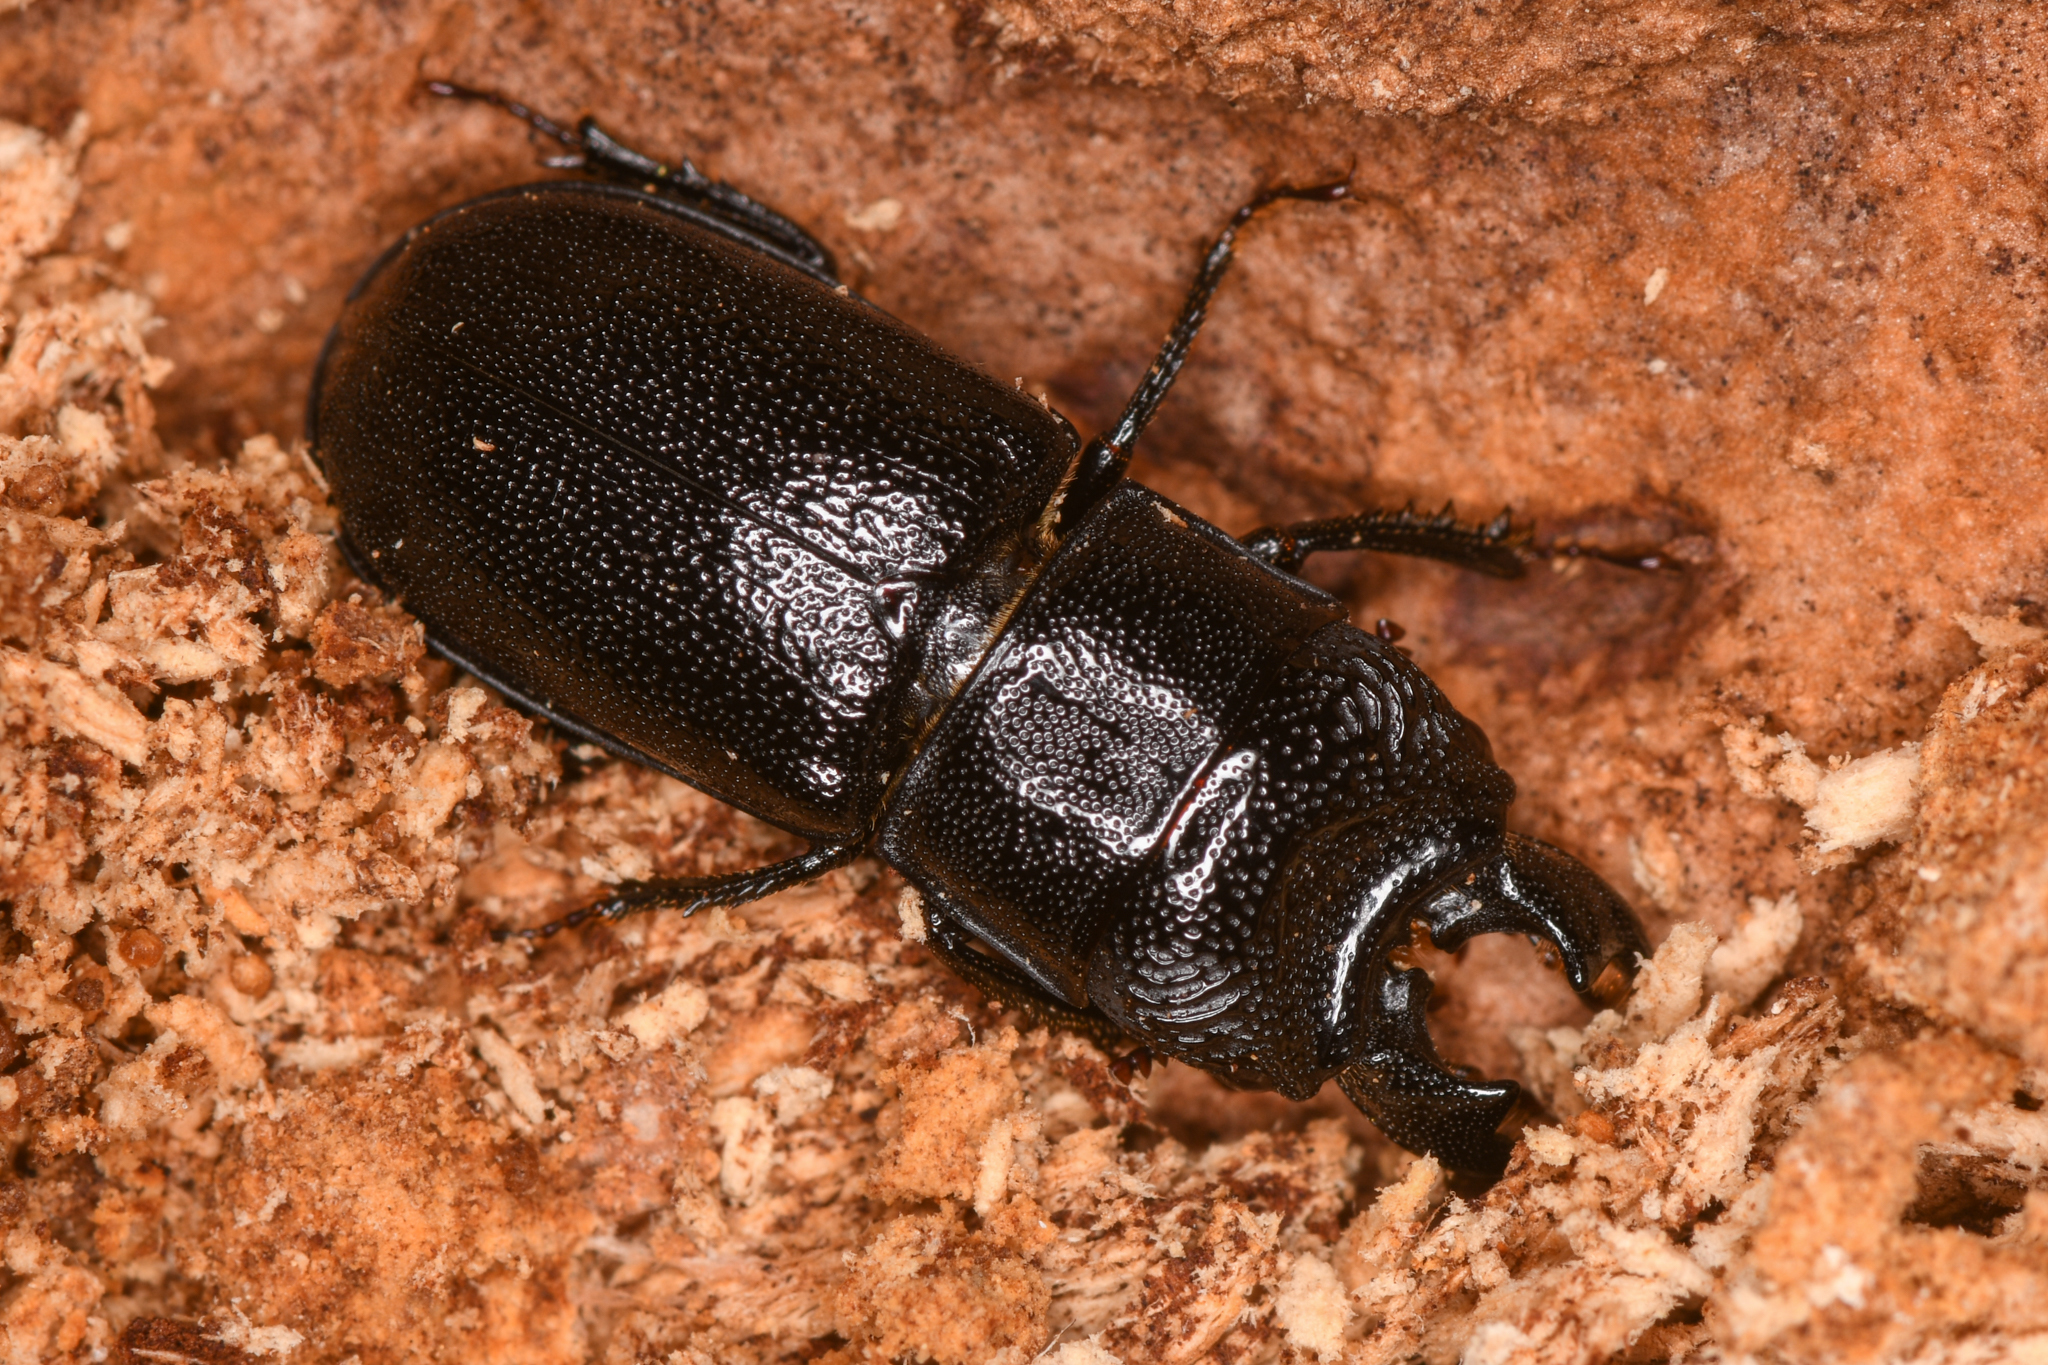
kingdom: Animalia
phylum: Arthropoda
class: Insecta
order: Coleoptera
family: Lucanidae
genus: Ceruchus
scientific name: Ceruchus punctatus
